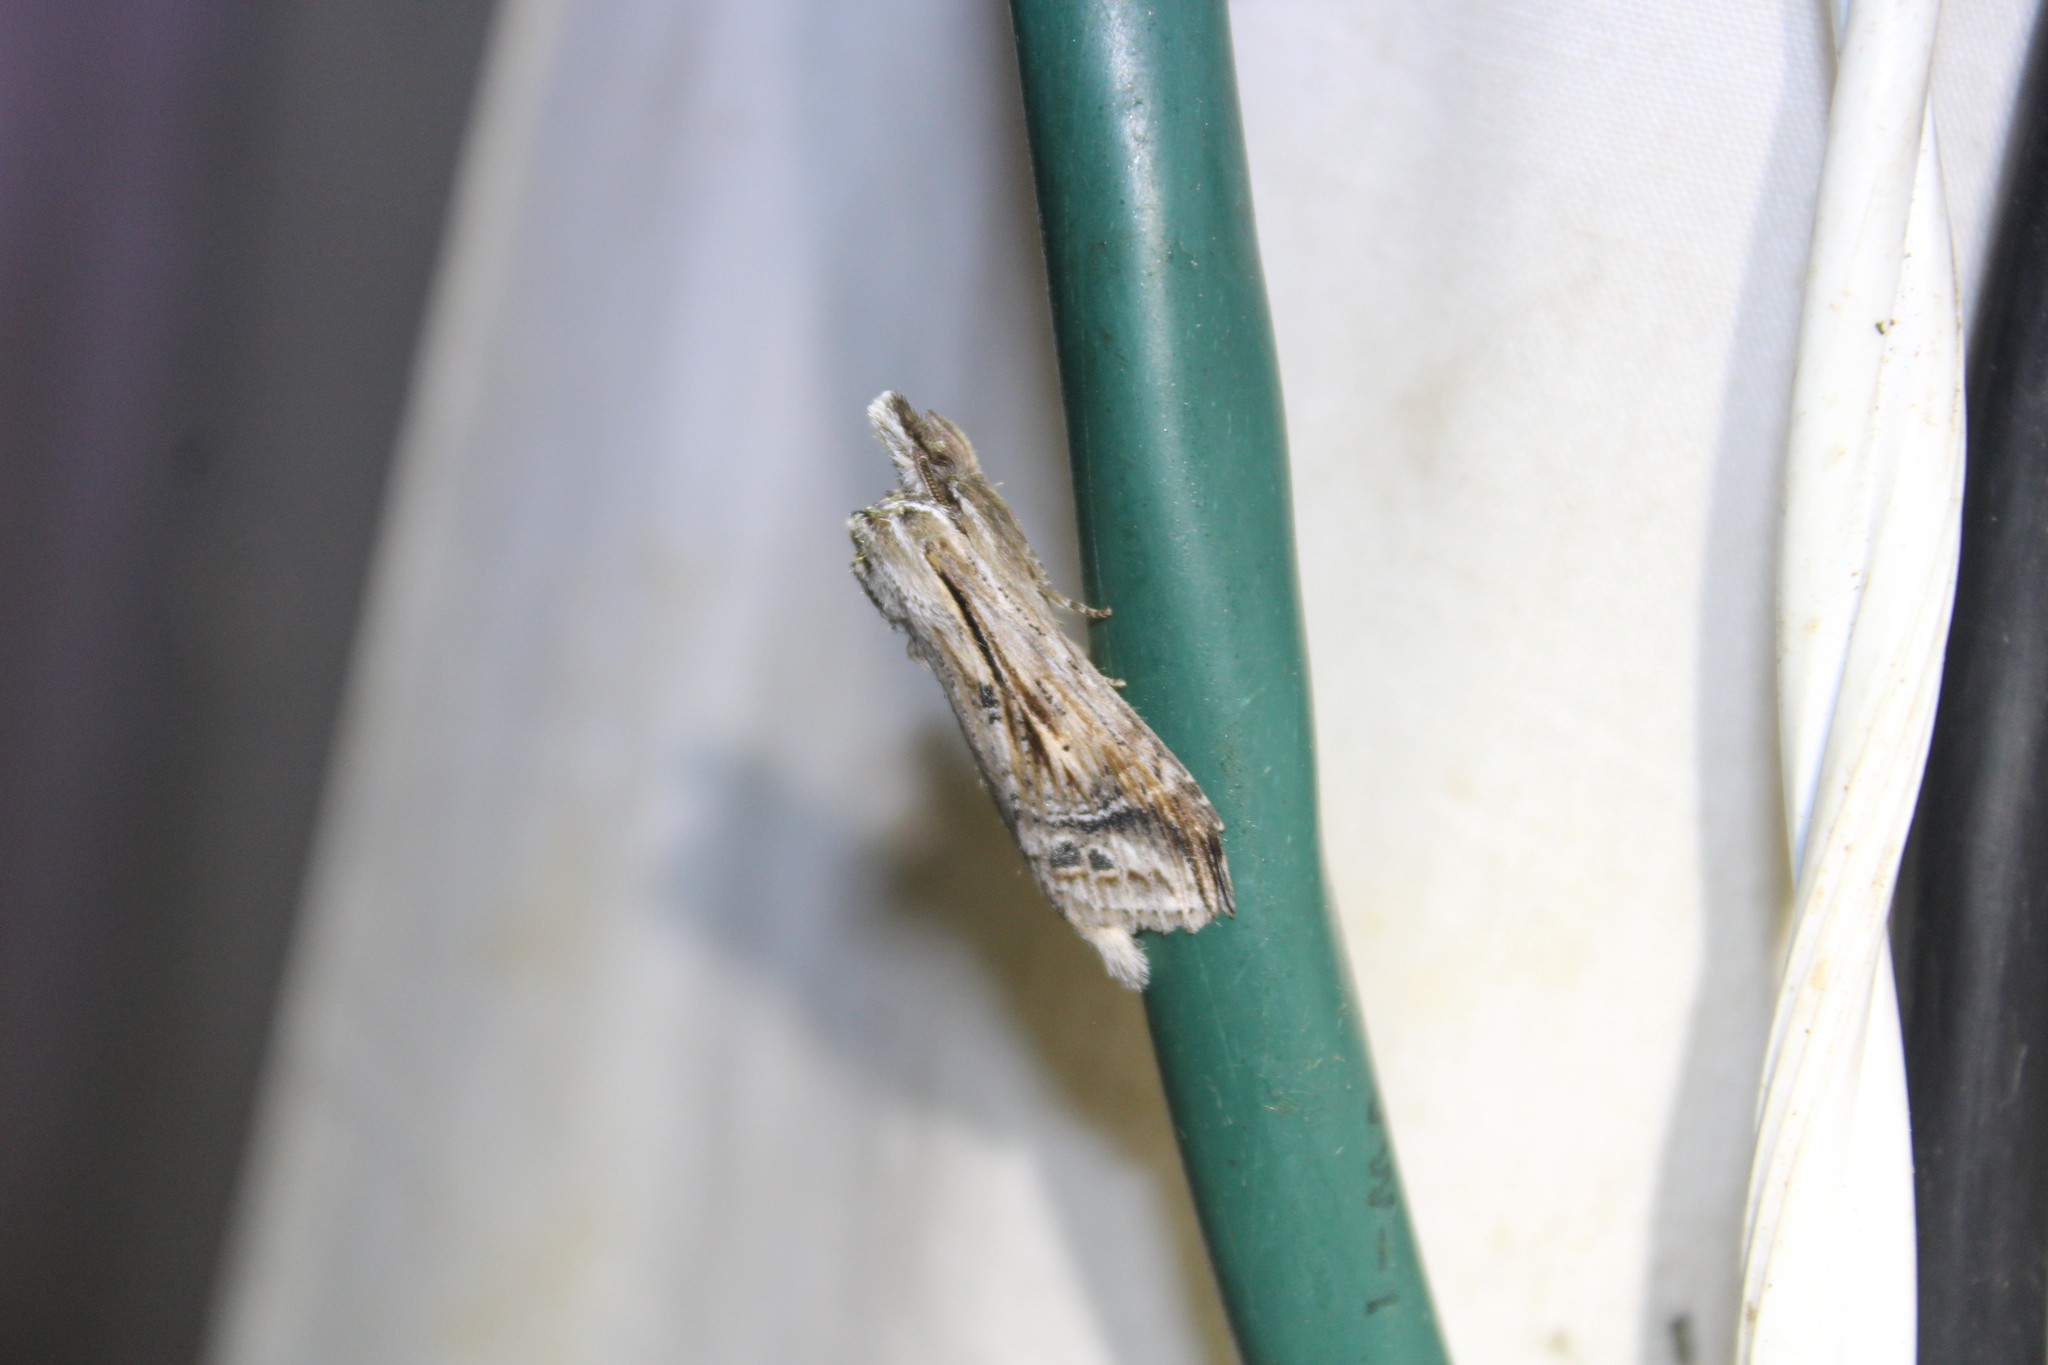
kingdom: Animalia
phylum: Arthropoda
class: Insecta
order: Lepidoptera
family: Notodontidae
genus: Dasylophia
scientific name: Dasylophia anguina
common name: Black-spotted prominent
